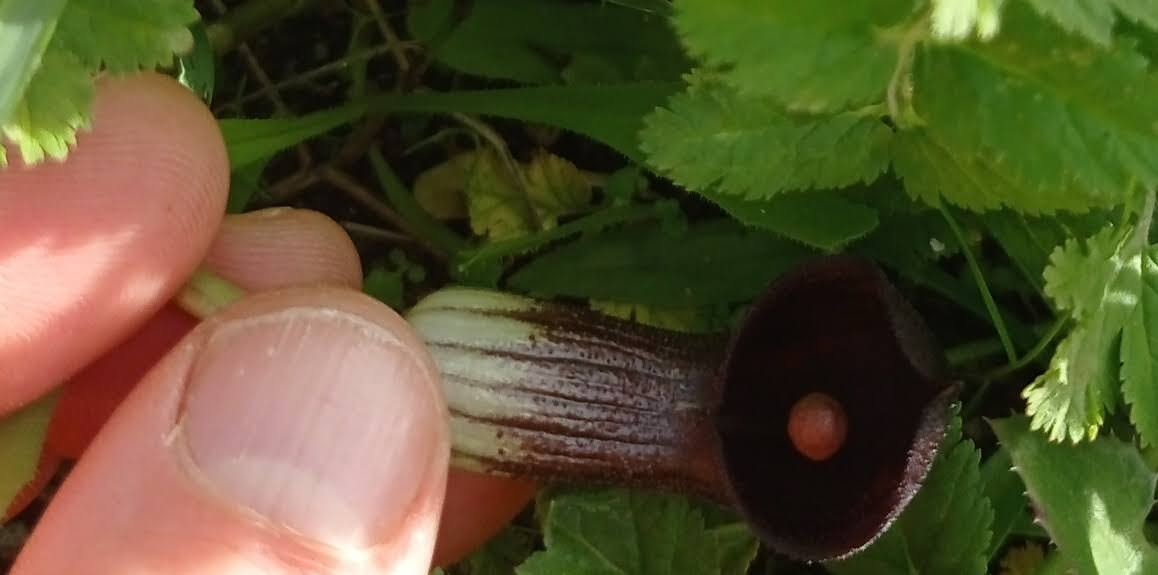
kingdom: Plantae
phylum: Tracheophyta
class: Liliopsida
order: Alismatales
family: Araceae
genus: Arisarum
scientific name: Arisarum simorrhinum
